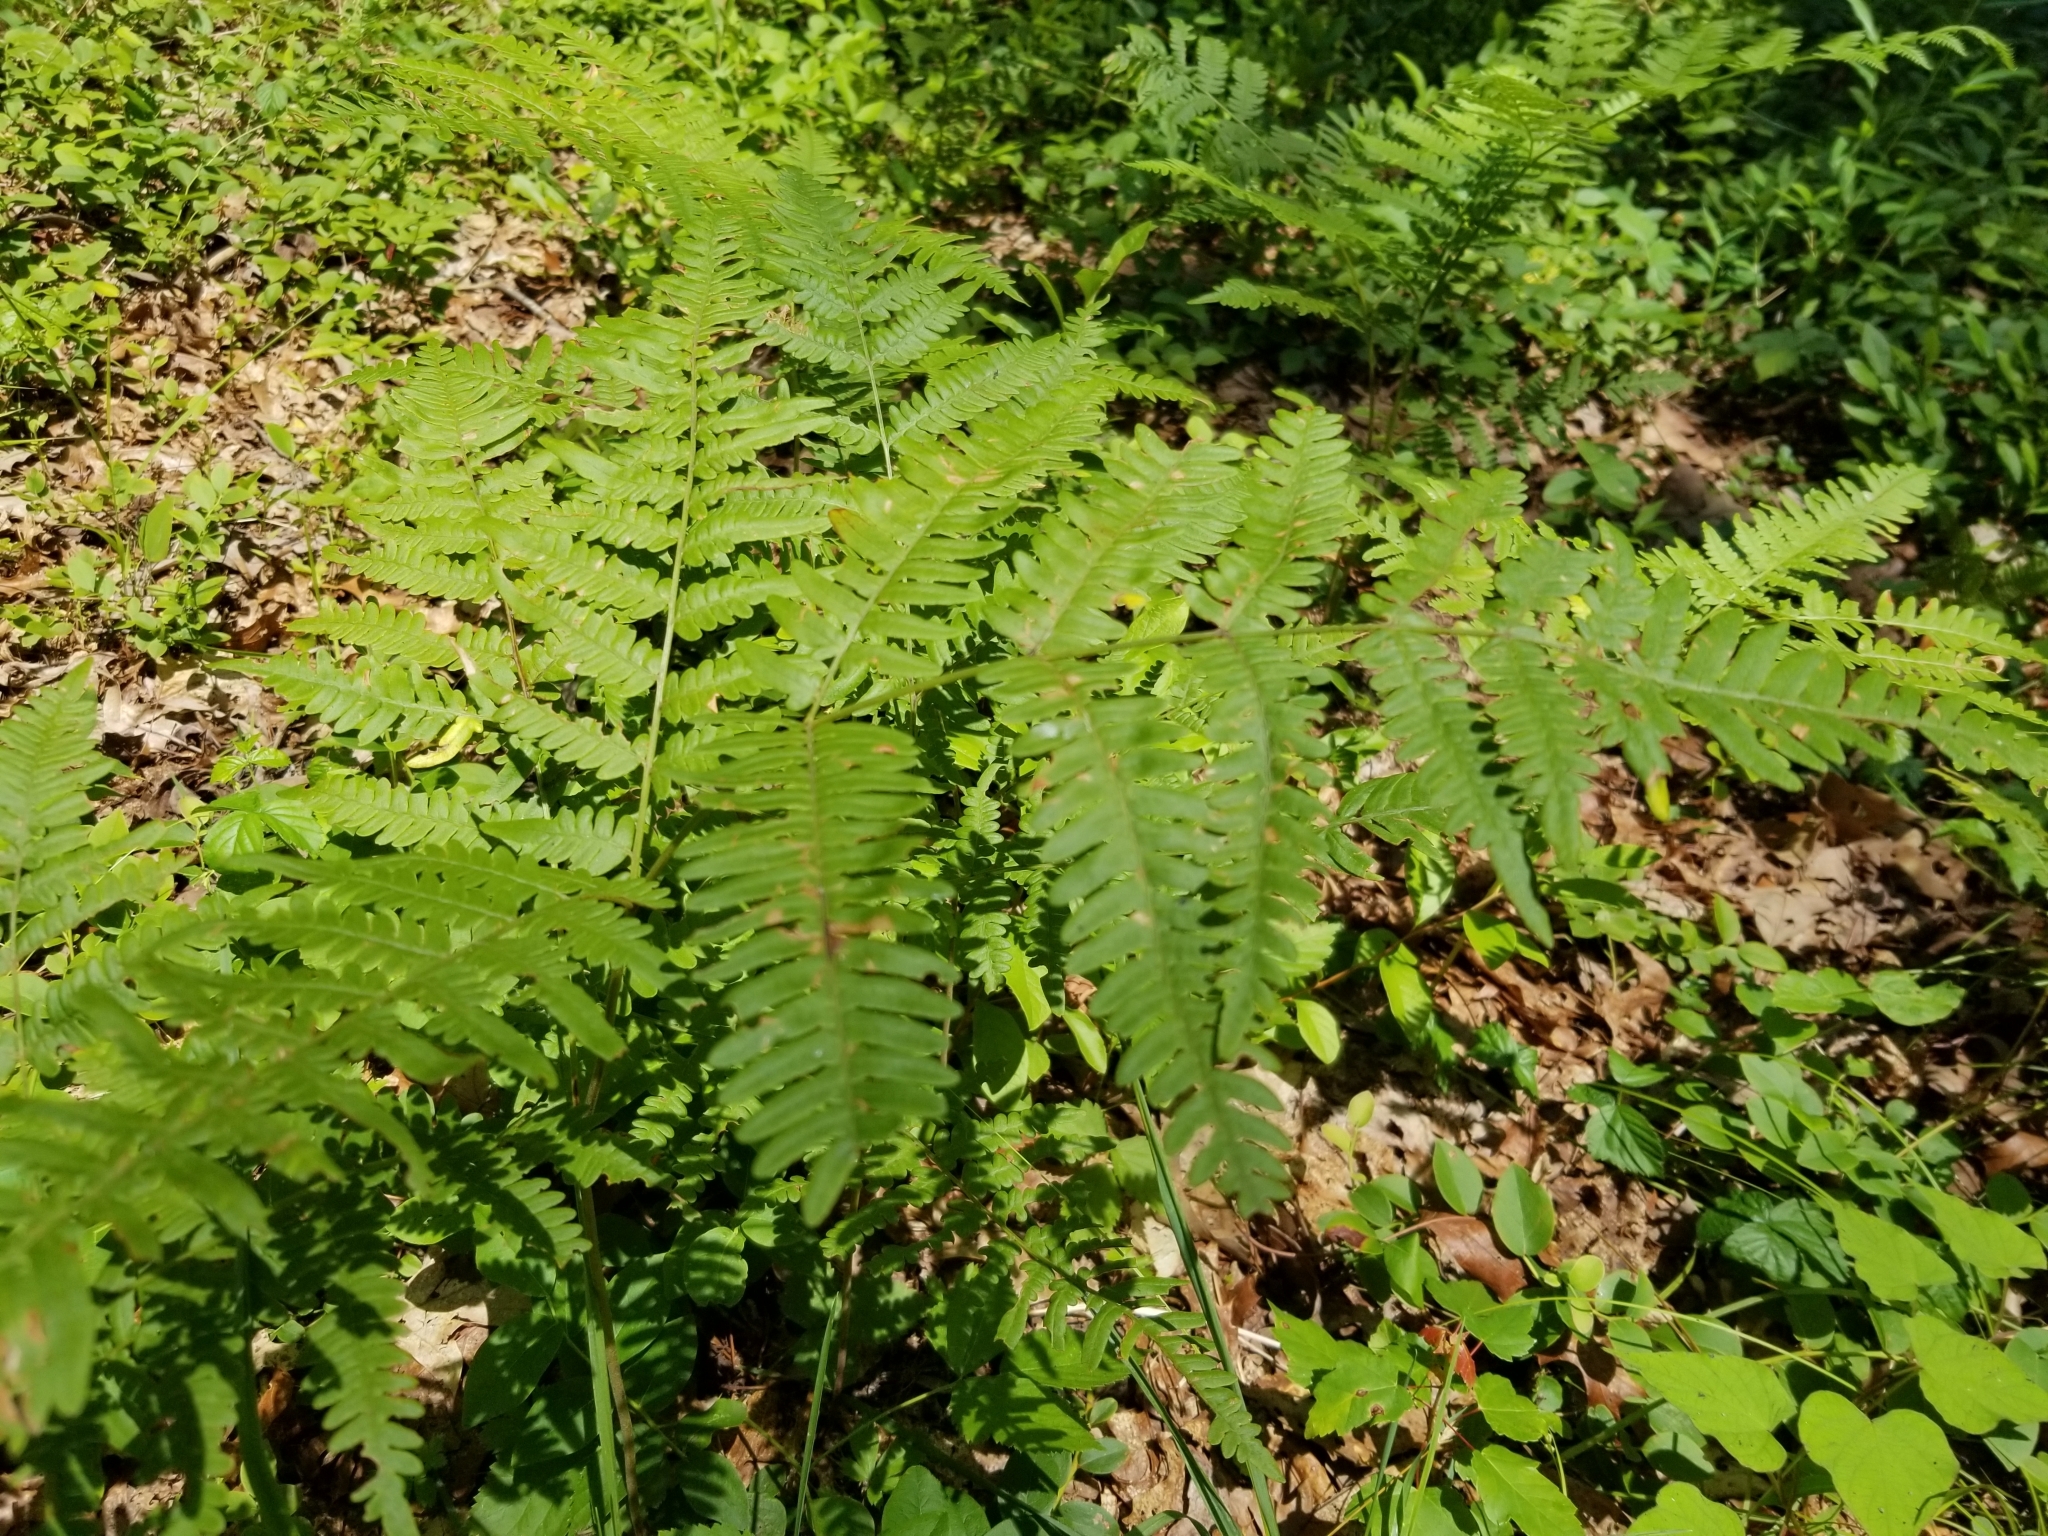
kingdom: Plantae
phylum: Tracheophyta
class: Polypodiopsida
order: Polypodiales
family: Dennstaedtiaceae
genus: Pteridium
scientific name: Pteridium aquilinum
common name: Bracken
